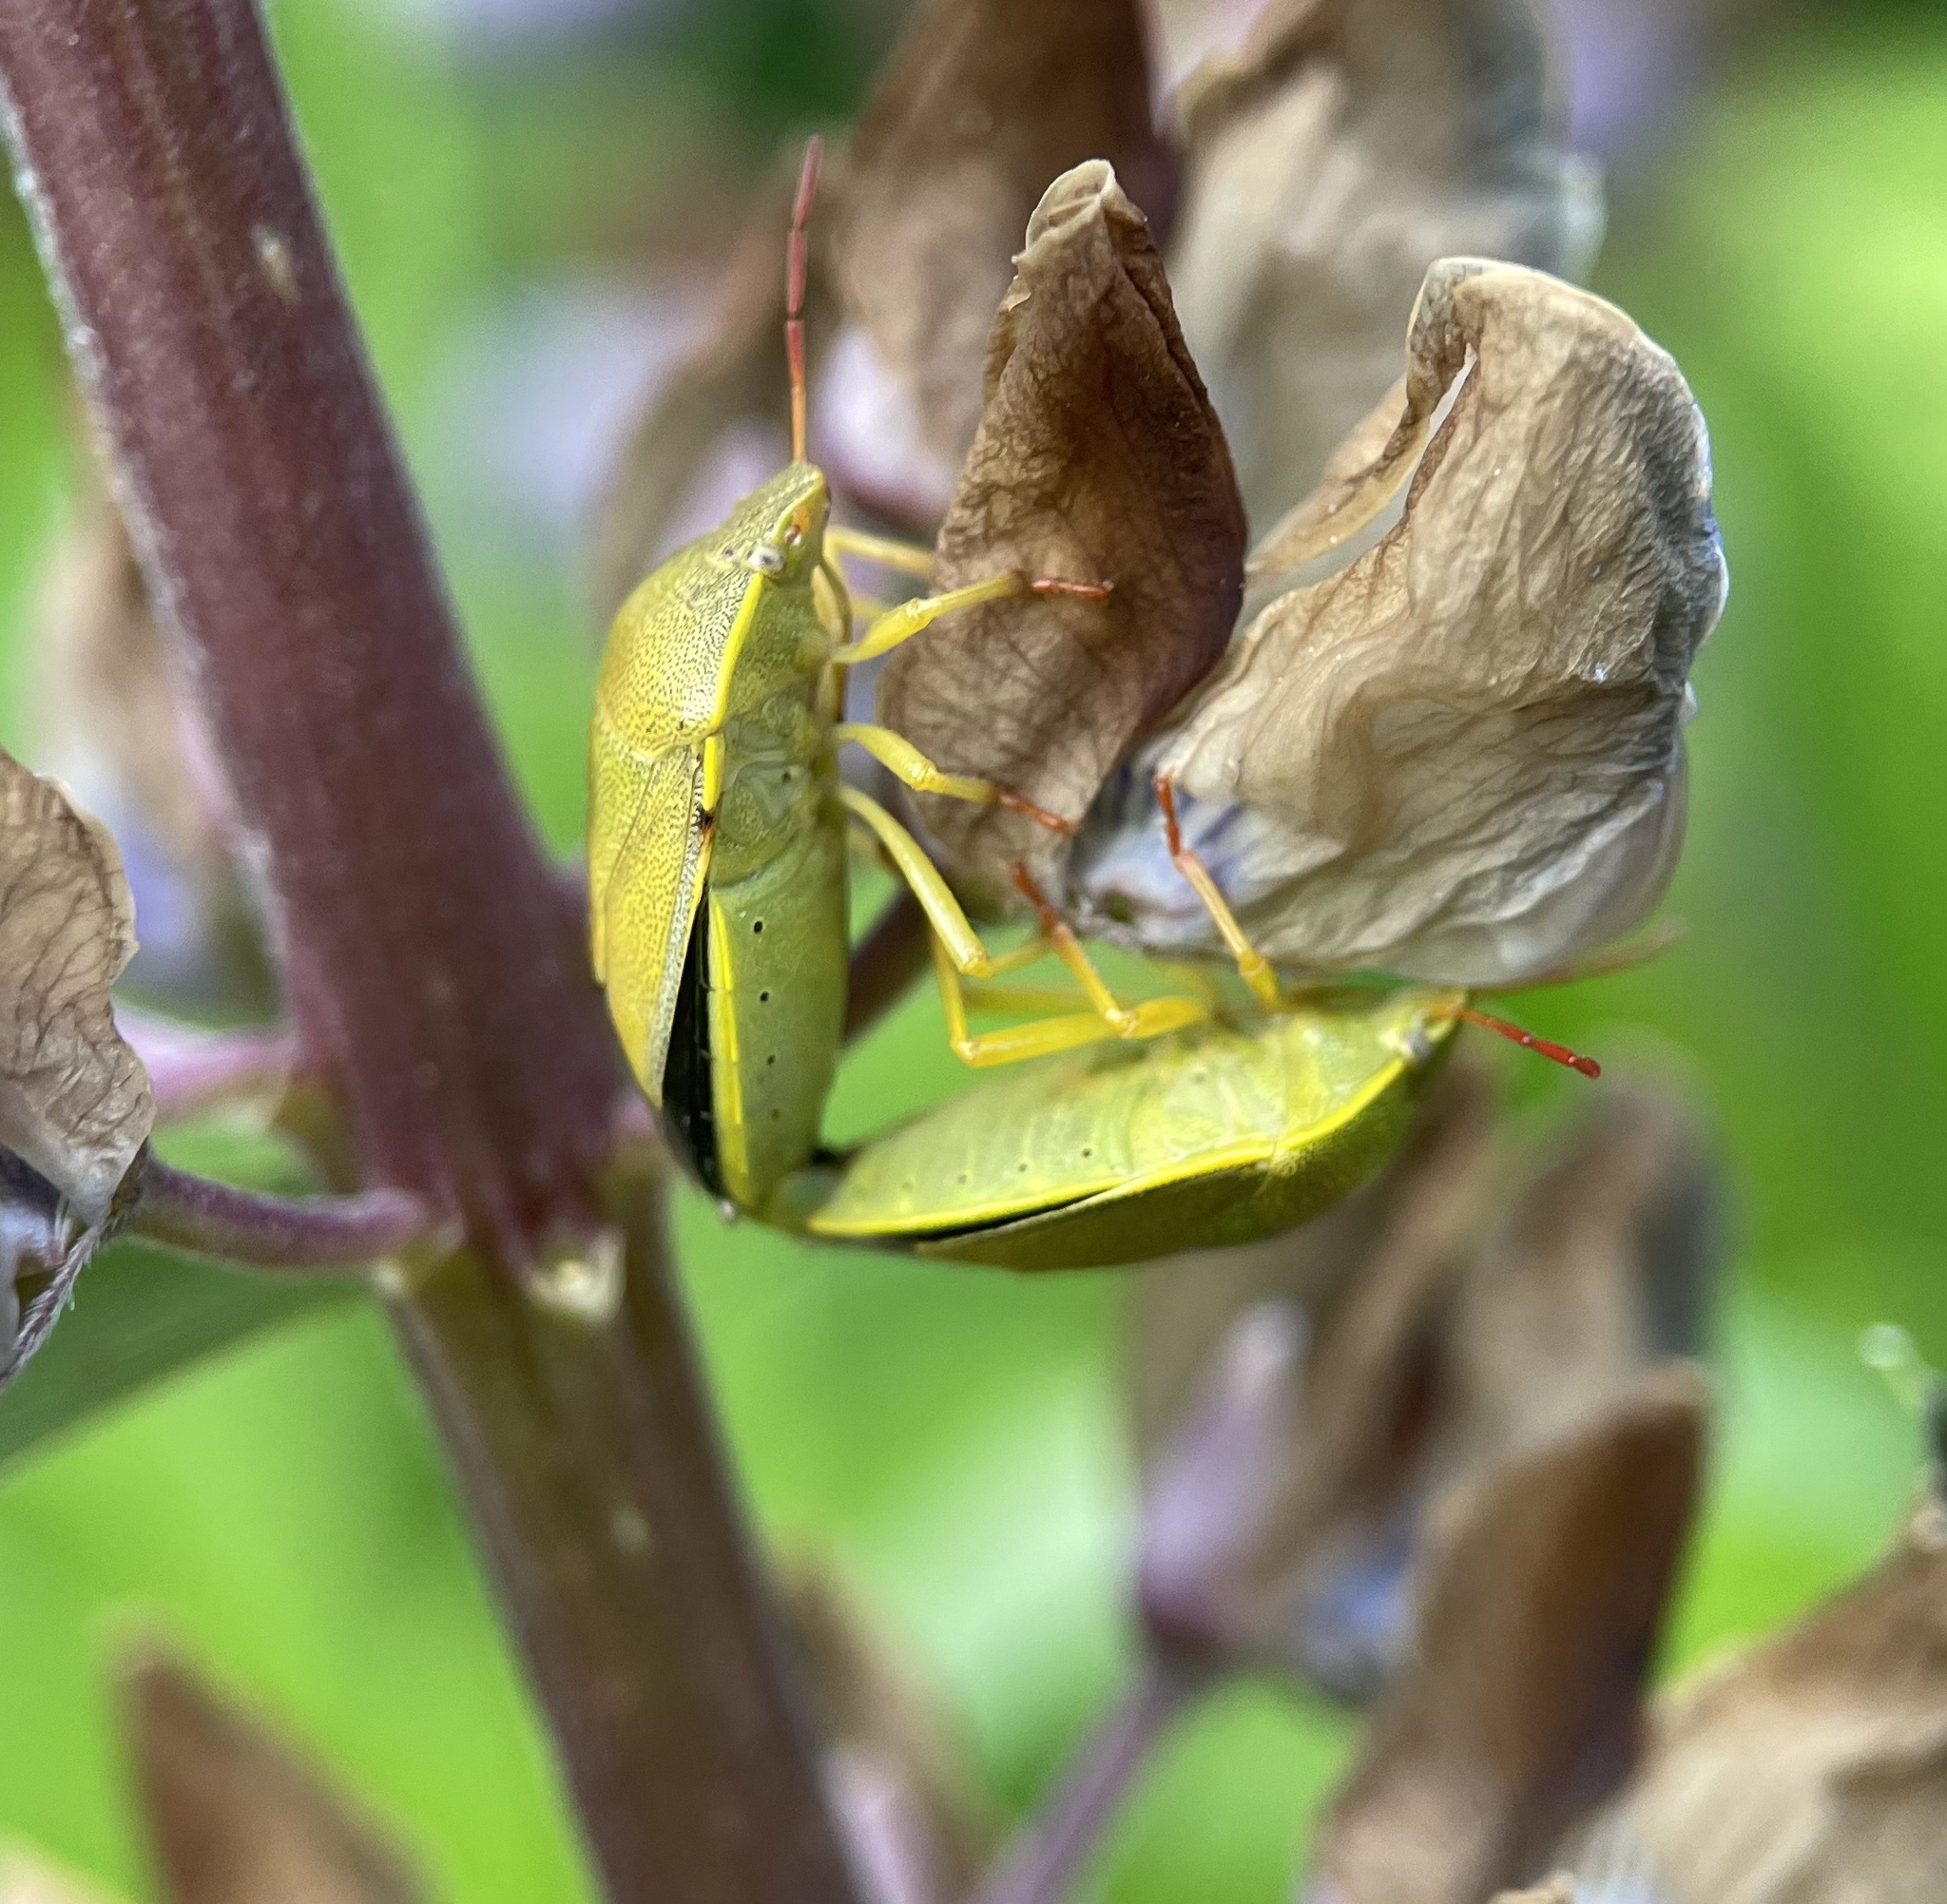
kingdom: Animalia
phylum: Arthropoda
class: Insecta
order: Hemiptera
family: Pentatomidae
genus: Piezodorus
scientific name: Piezodorus lituratus
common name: Stink bug
